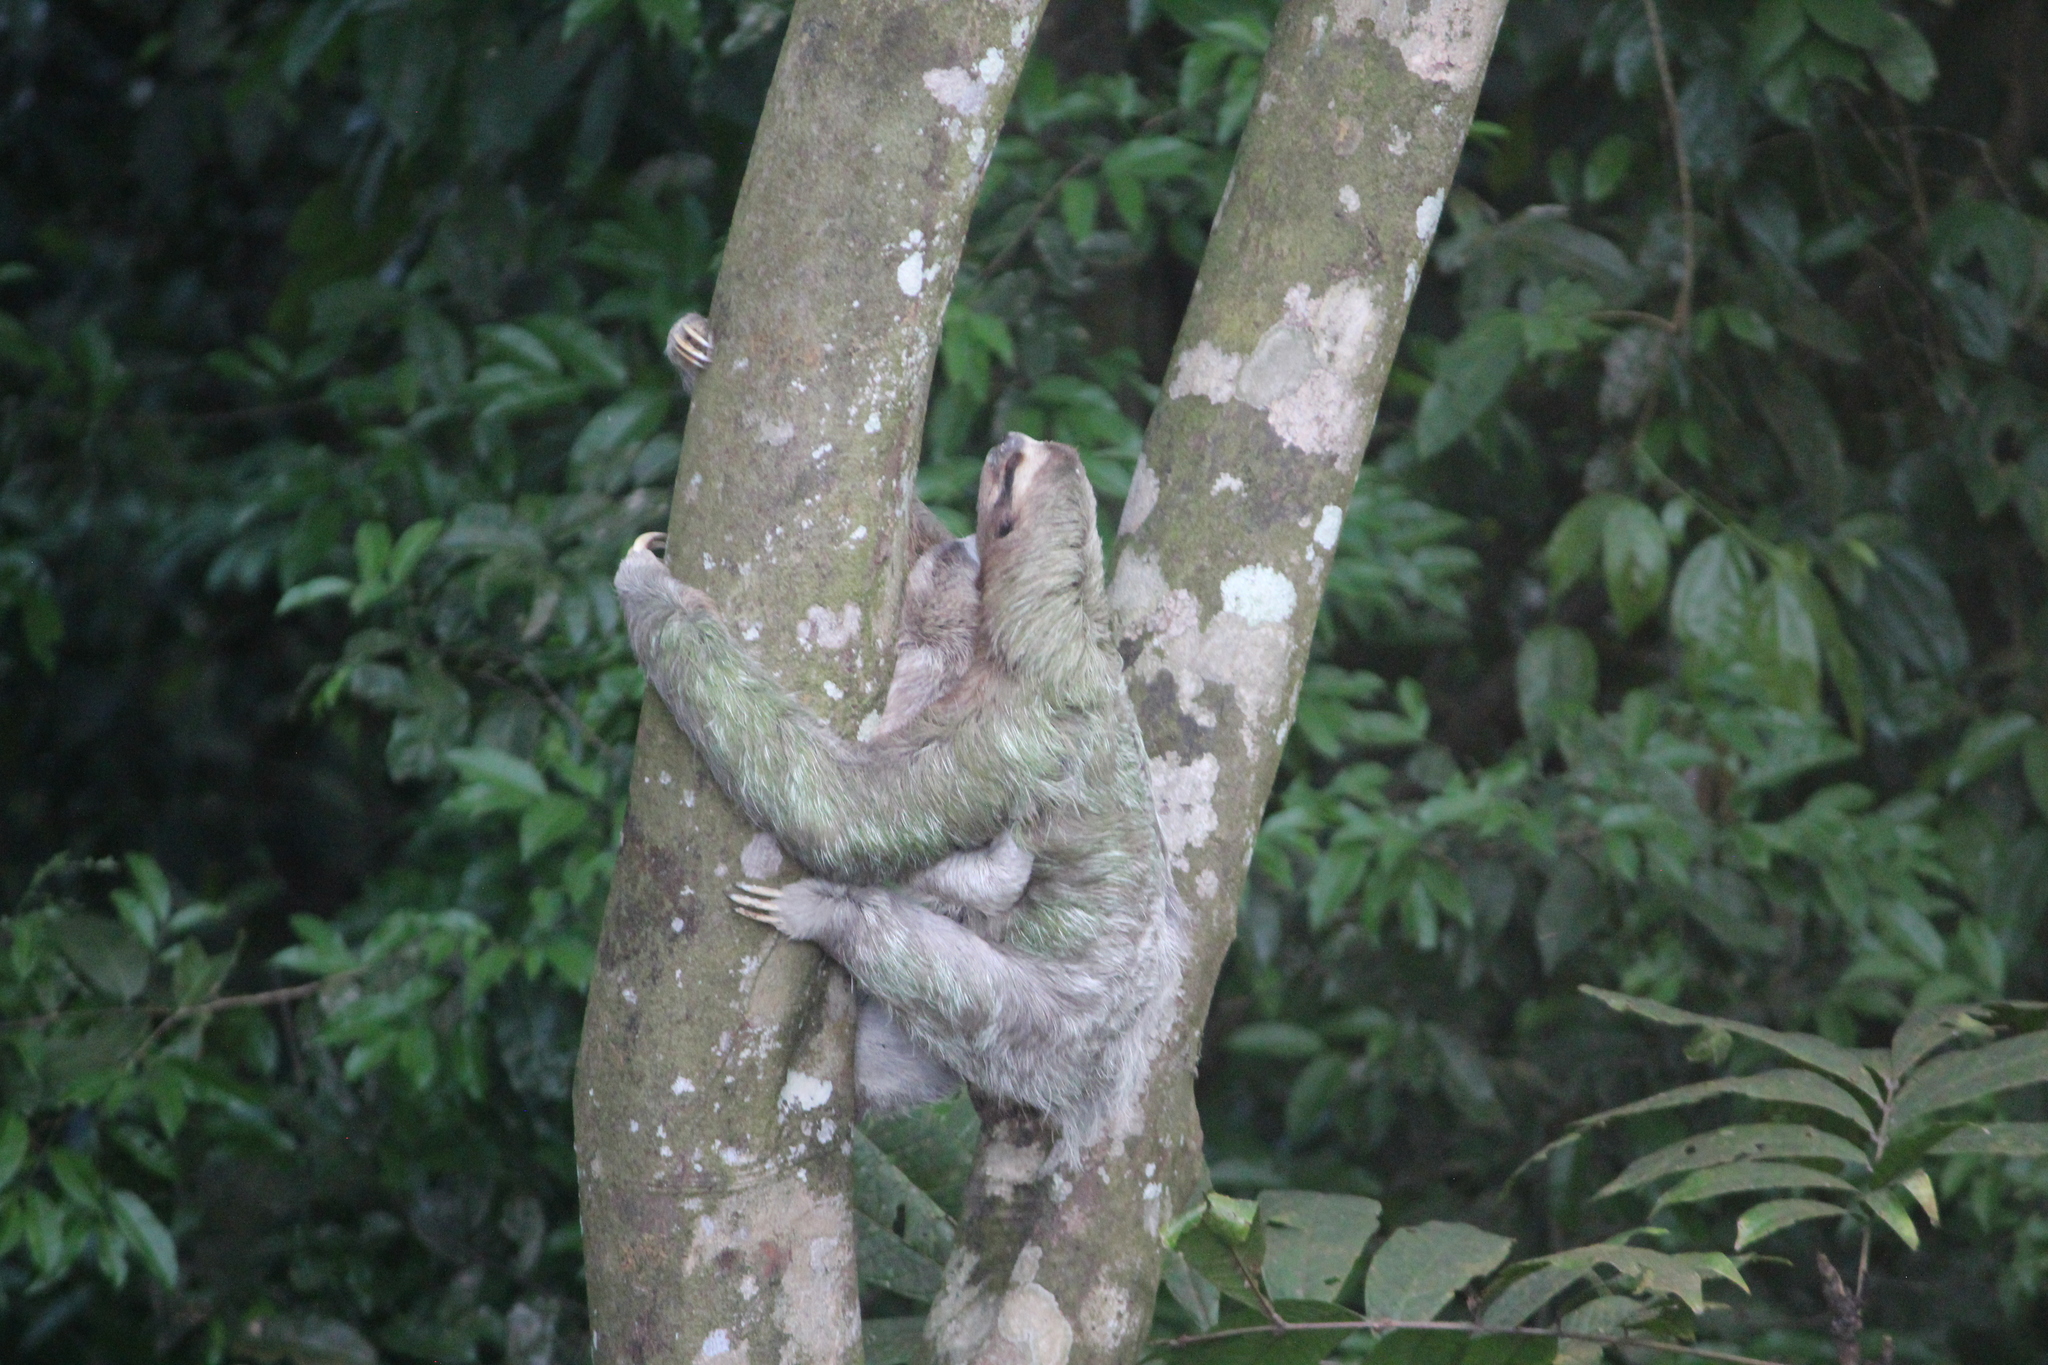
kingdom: Animalia
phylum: Chordata
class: Mammalia
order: Pilosa
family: Bradypodidae
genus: Bradypus
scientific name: Bradypus variegatus
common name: Brown-throated three-toed sloth
